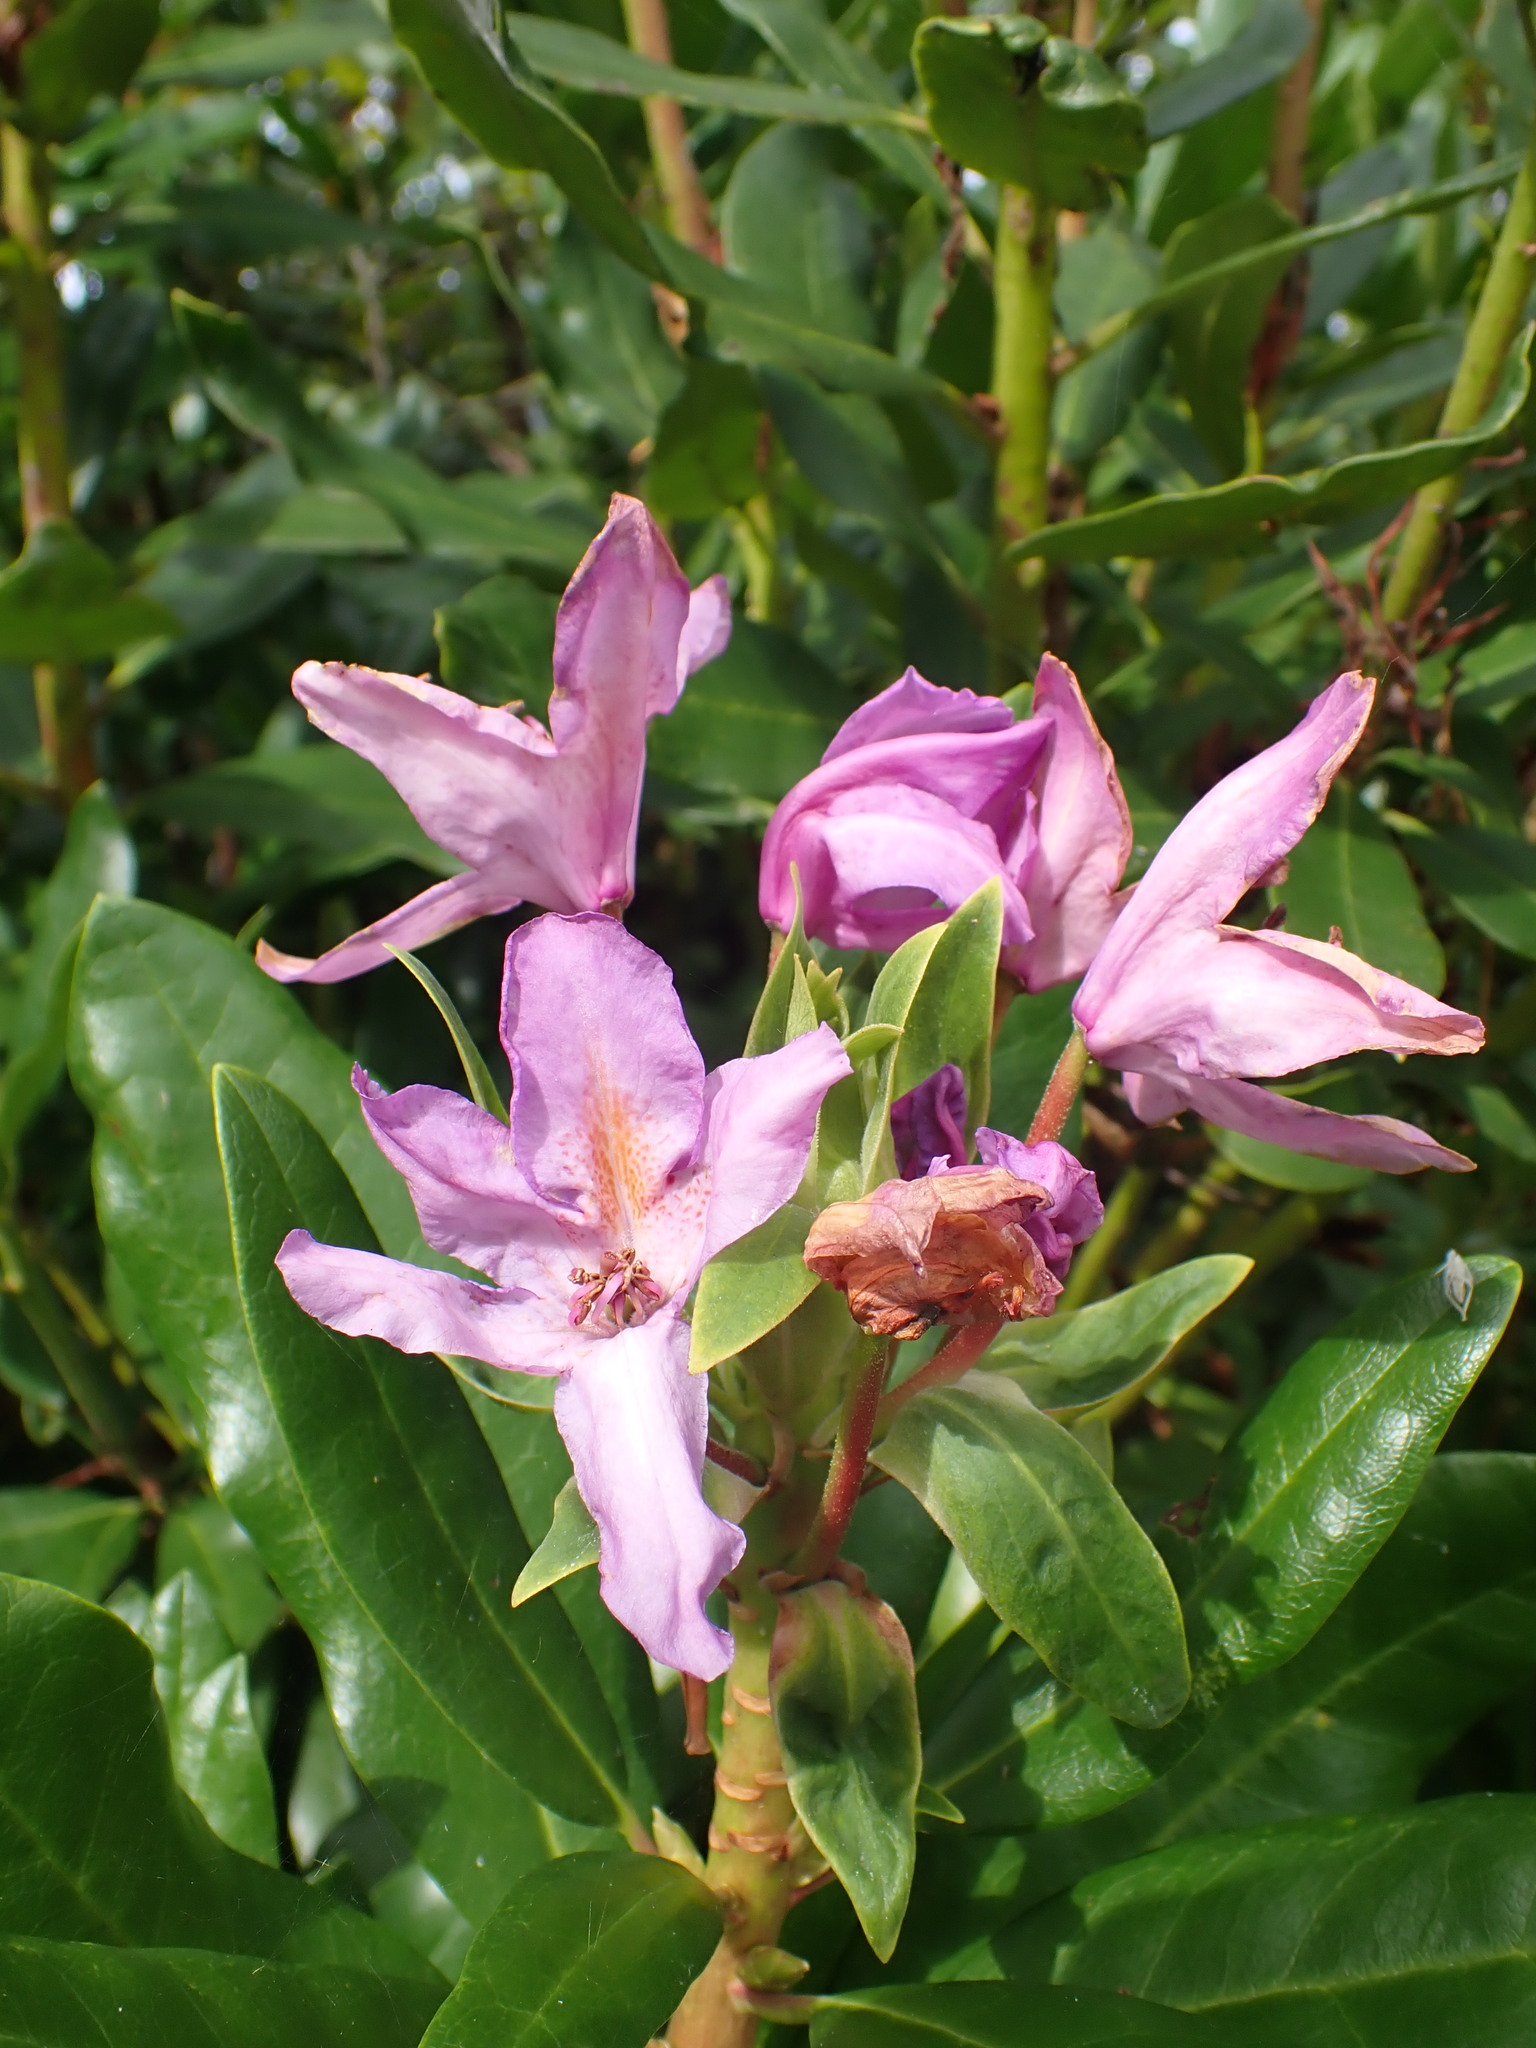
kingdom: Plantae
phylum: Tracheophyta
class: Magnoliopsida
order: Ericales
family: Ericaceae
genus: Rhododendron
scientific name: Rhododendron ponticum
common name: Rhododendron
